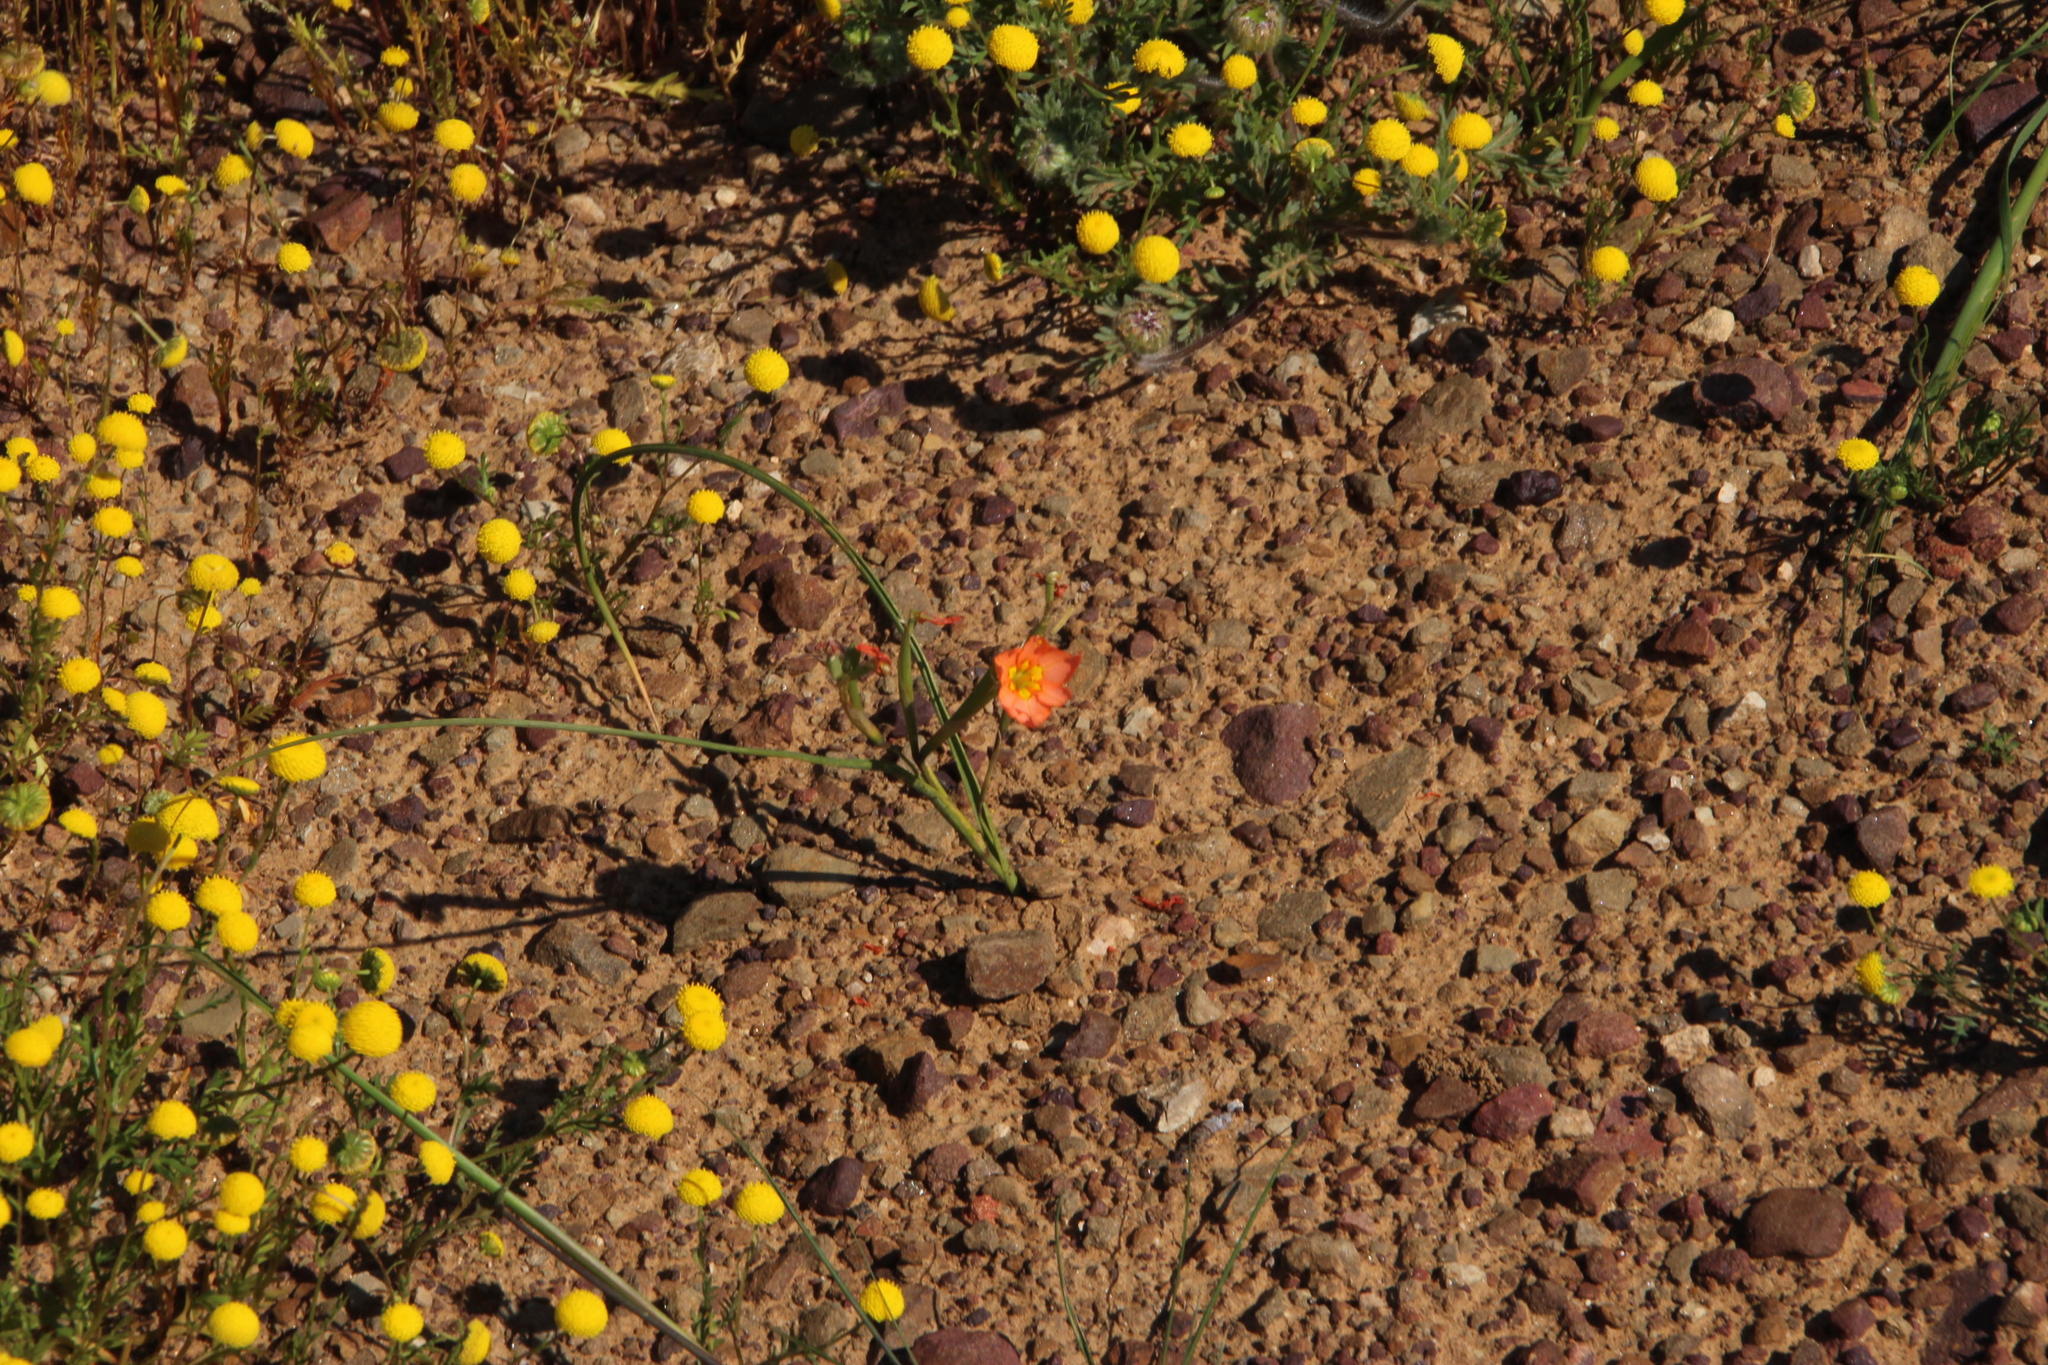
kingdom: Plantae
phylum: Tracheophyta
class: Liliopsida
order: Asparagales
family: Iridaceae
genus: Moraea
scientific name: Moraea flaccida
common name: One-leaf cape-tulip
